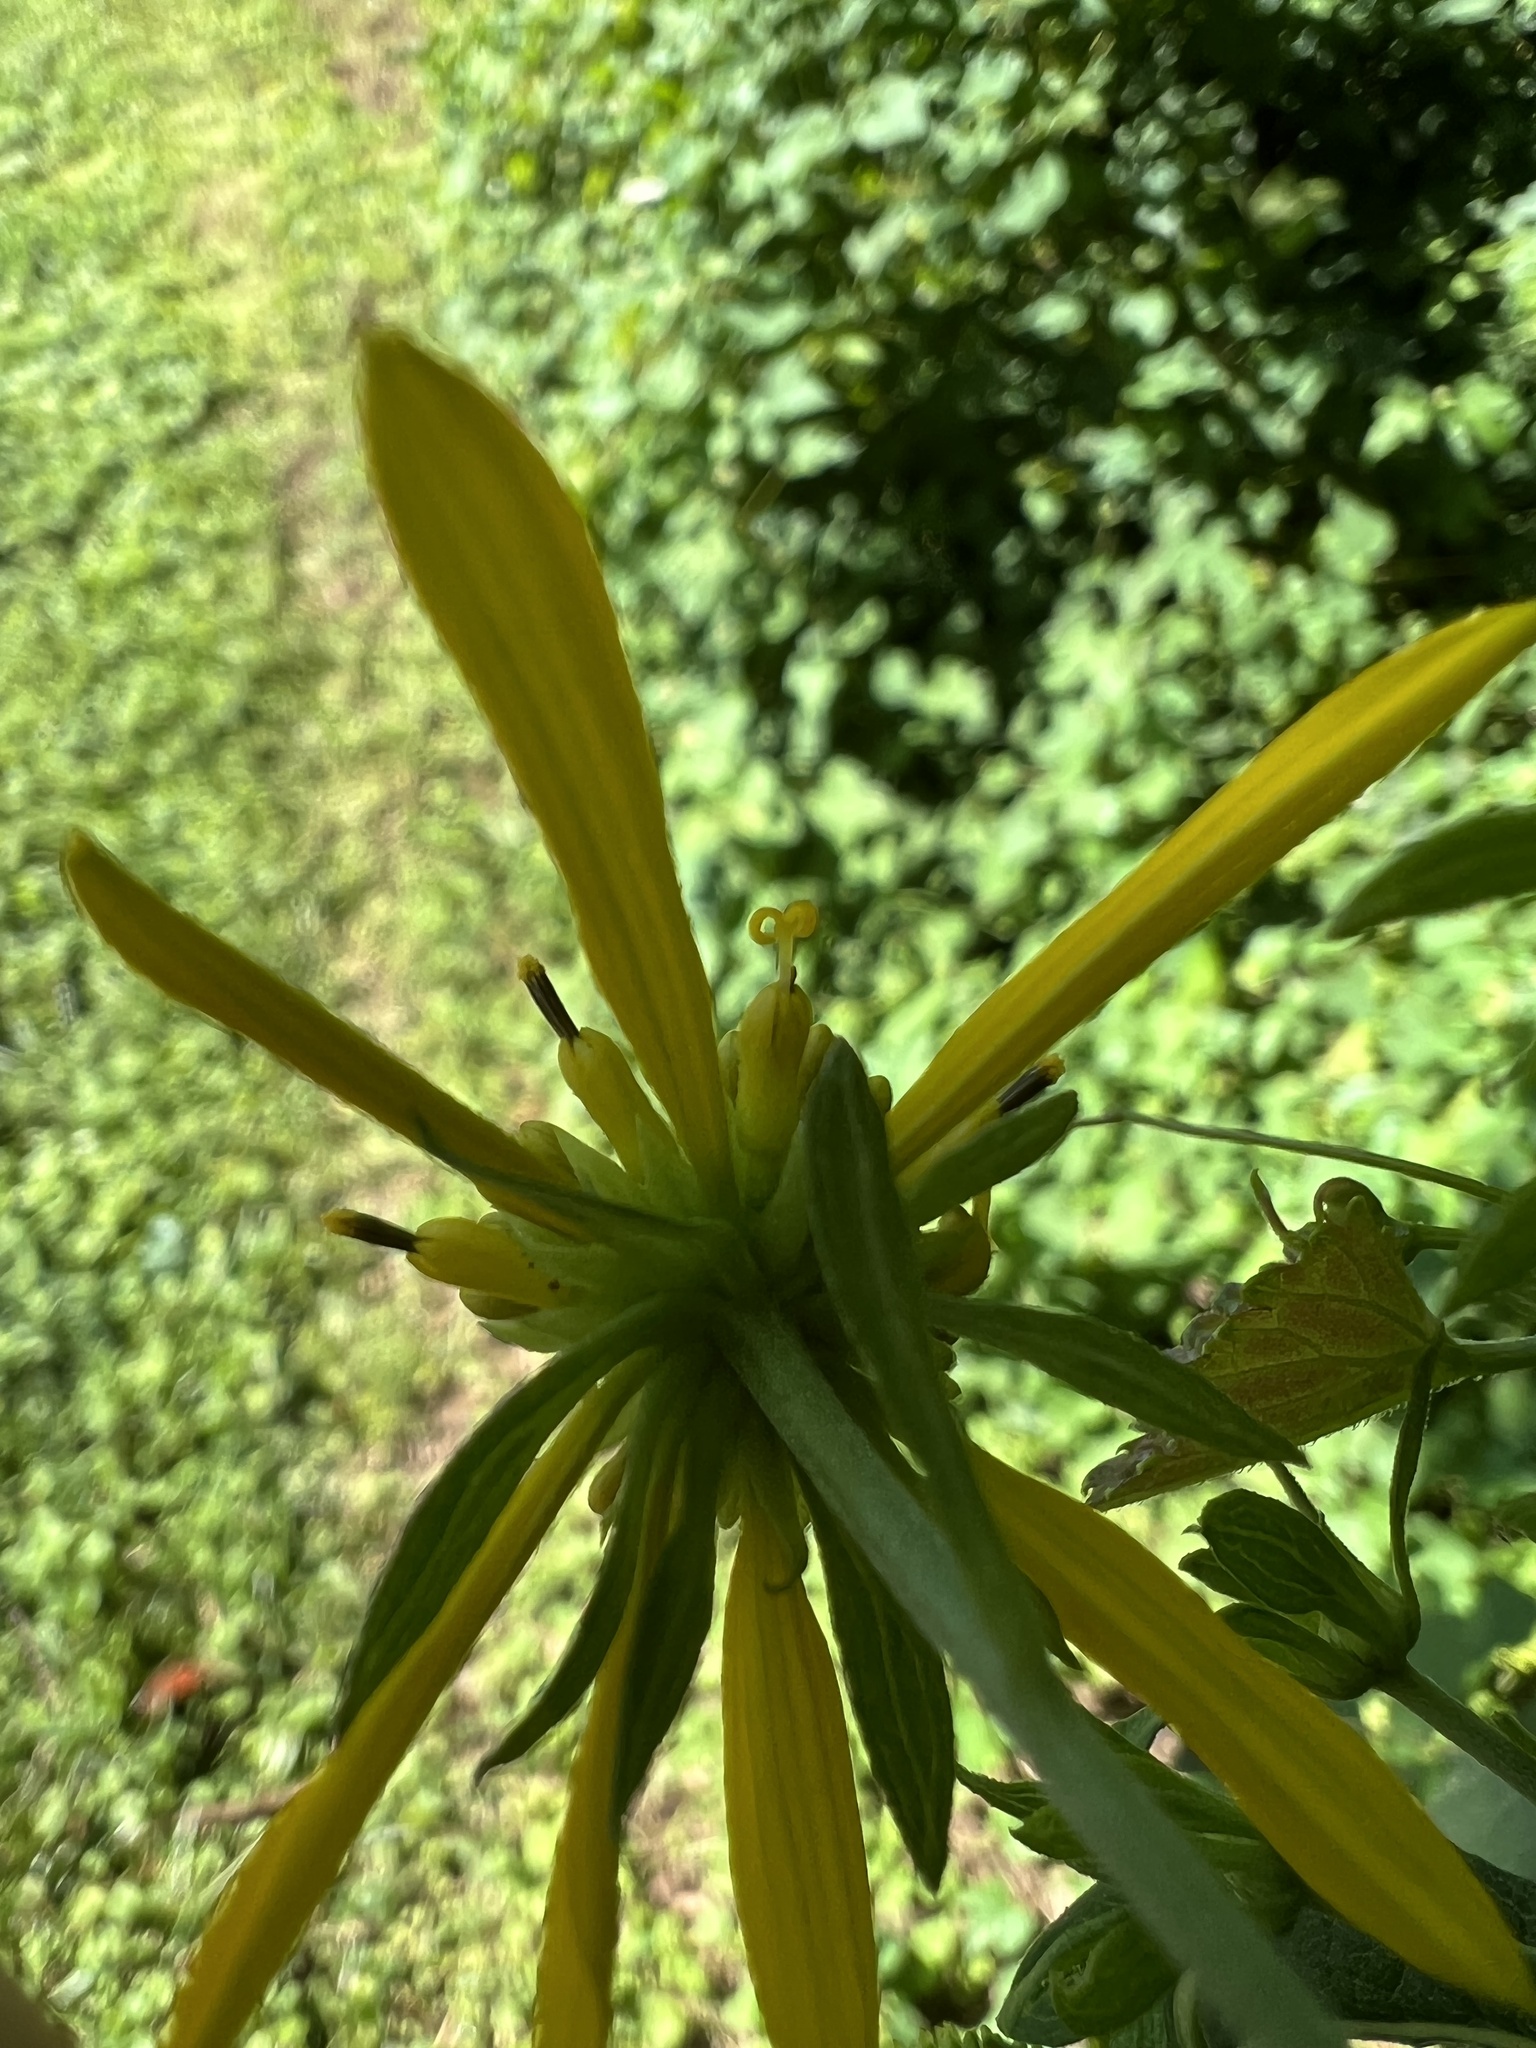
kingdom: Plantae
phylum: Tracheophyta
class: Magnoliopsida
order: Asterales
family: Asteraceae
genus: Verbesina
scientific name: Verbesina alternifolia
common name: Wingstem
